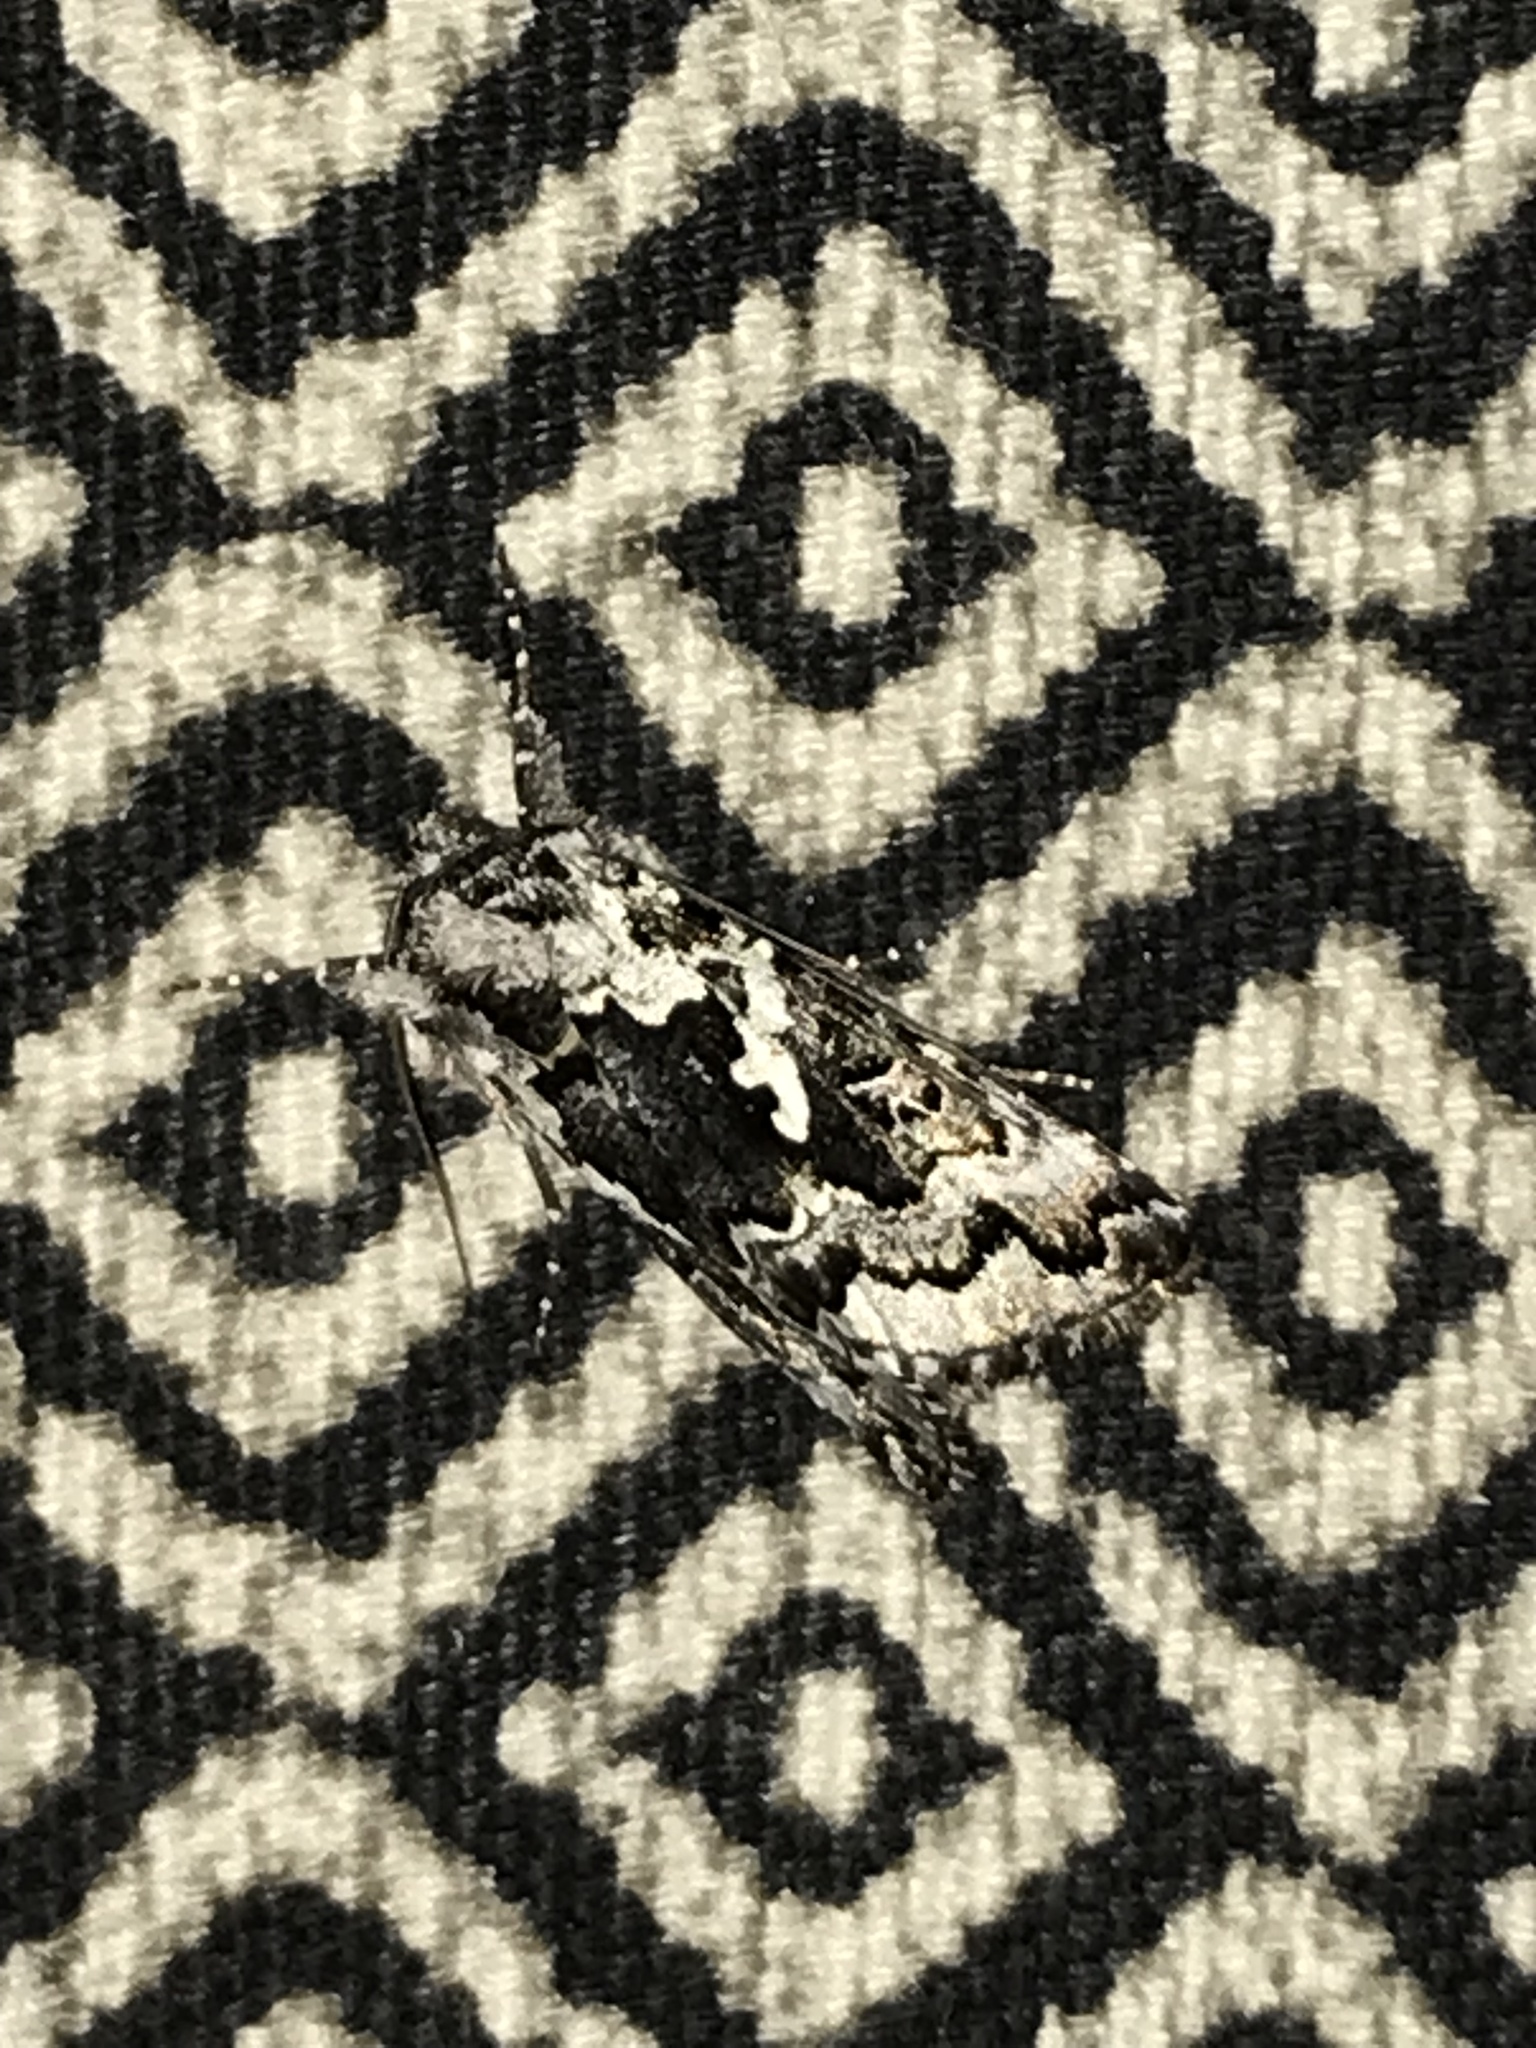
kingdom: Animalia
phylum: Arthropoda
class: Insecta
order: Lepidoptera
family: Noctuidae
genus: Syngrapha
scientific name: Syngrapha rectangula
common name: Angulated cutworm
